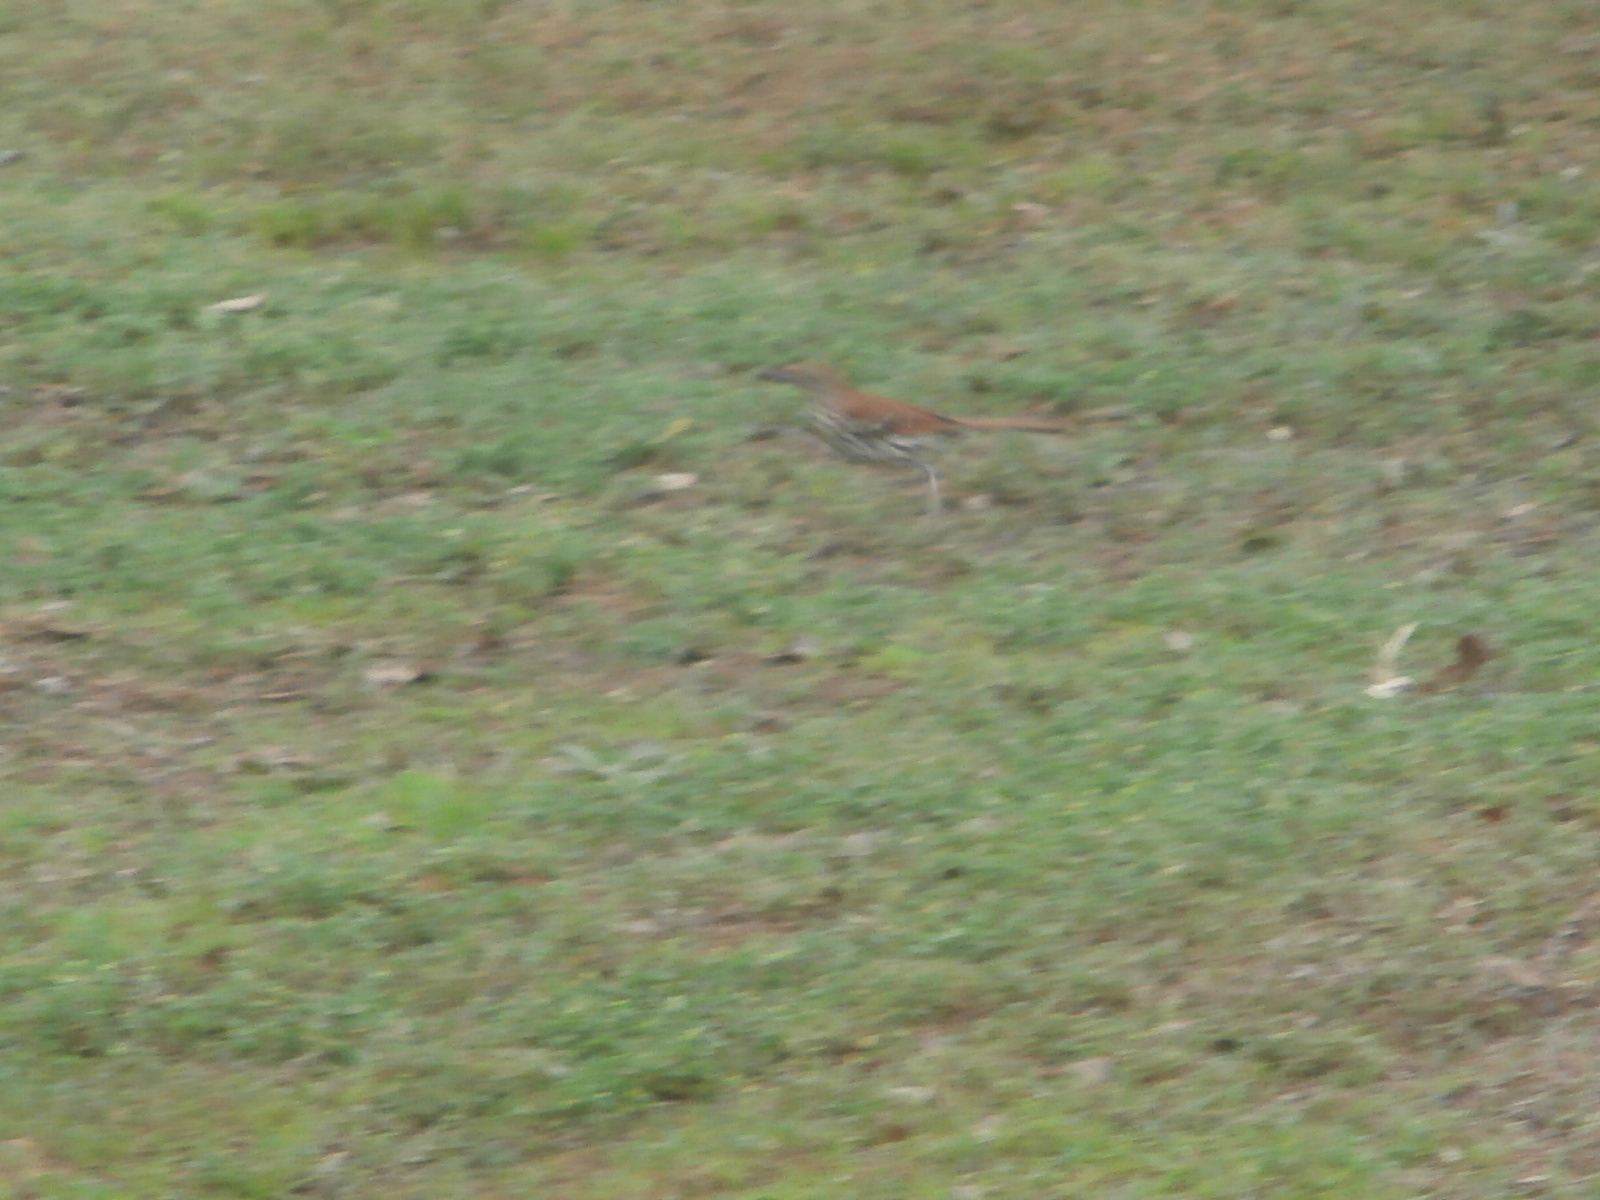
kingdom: Animalia
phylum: Chordata
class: Aves
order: Passeriformes
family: Mimidae
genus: Toxostoma
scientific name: Toxostoma rufum
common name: Brown thrasher
